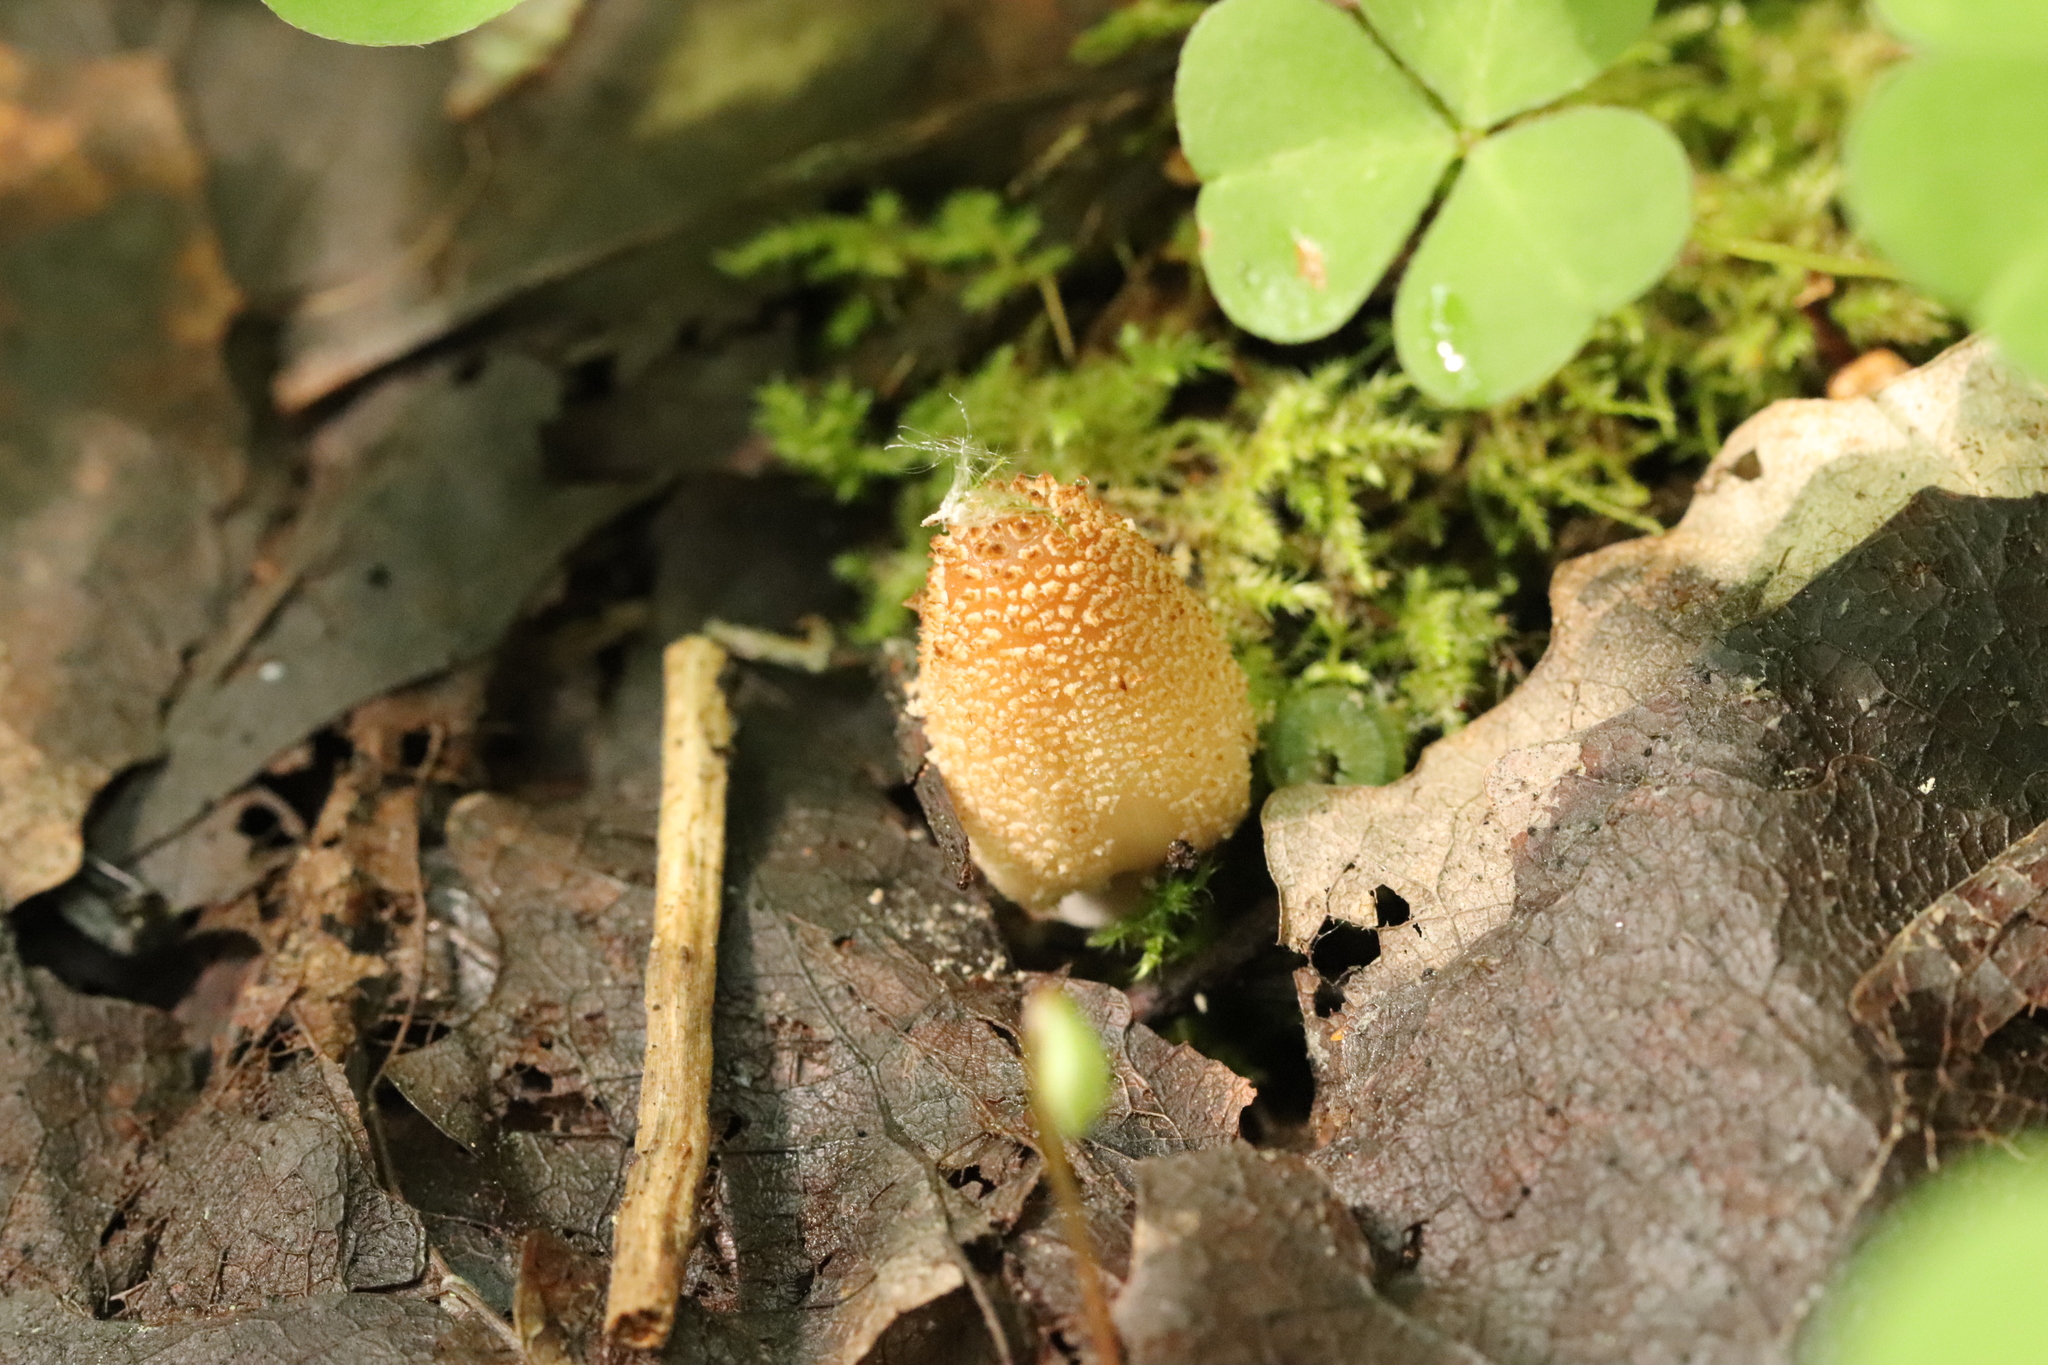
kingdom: Fungi
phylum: Basidiomycota
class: Agaricomycetes
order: Agaricales
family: Psathyrellaceae
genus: Coprinellus
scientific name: Coprinellus domesticus
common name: Firerug inkcap
